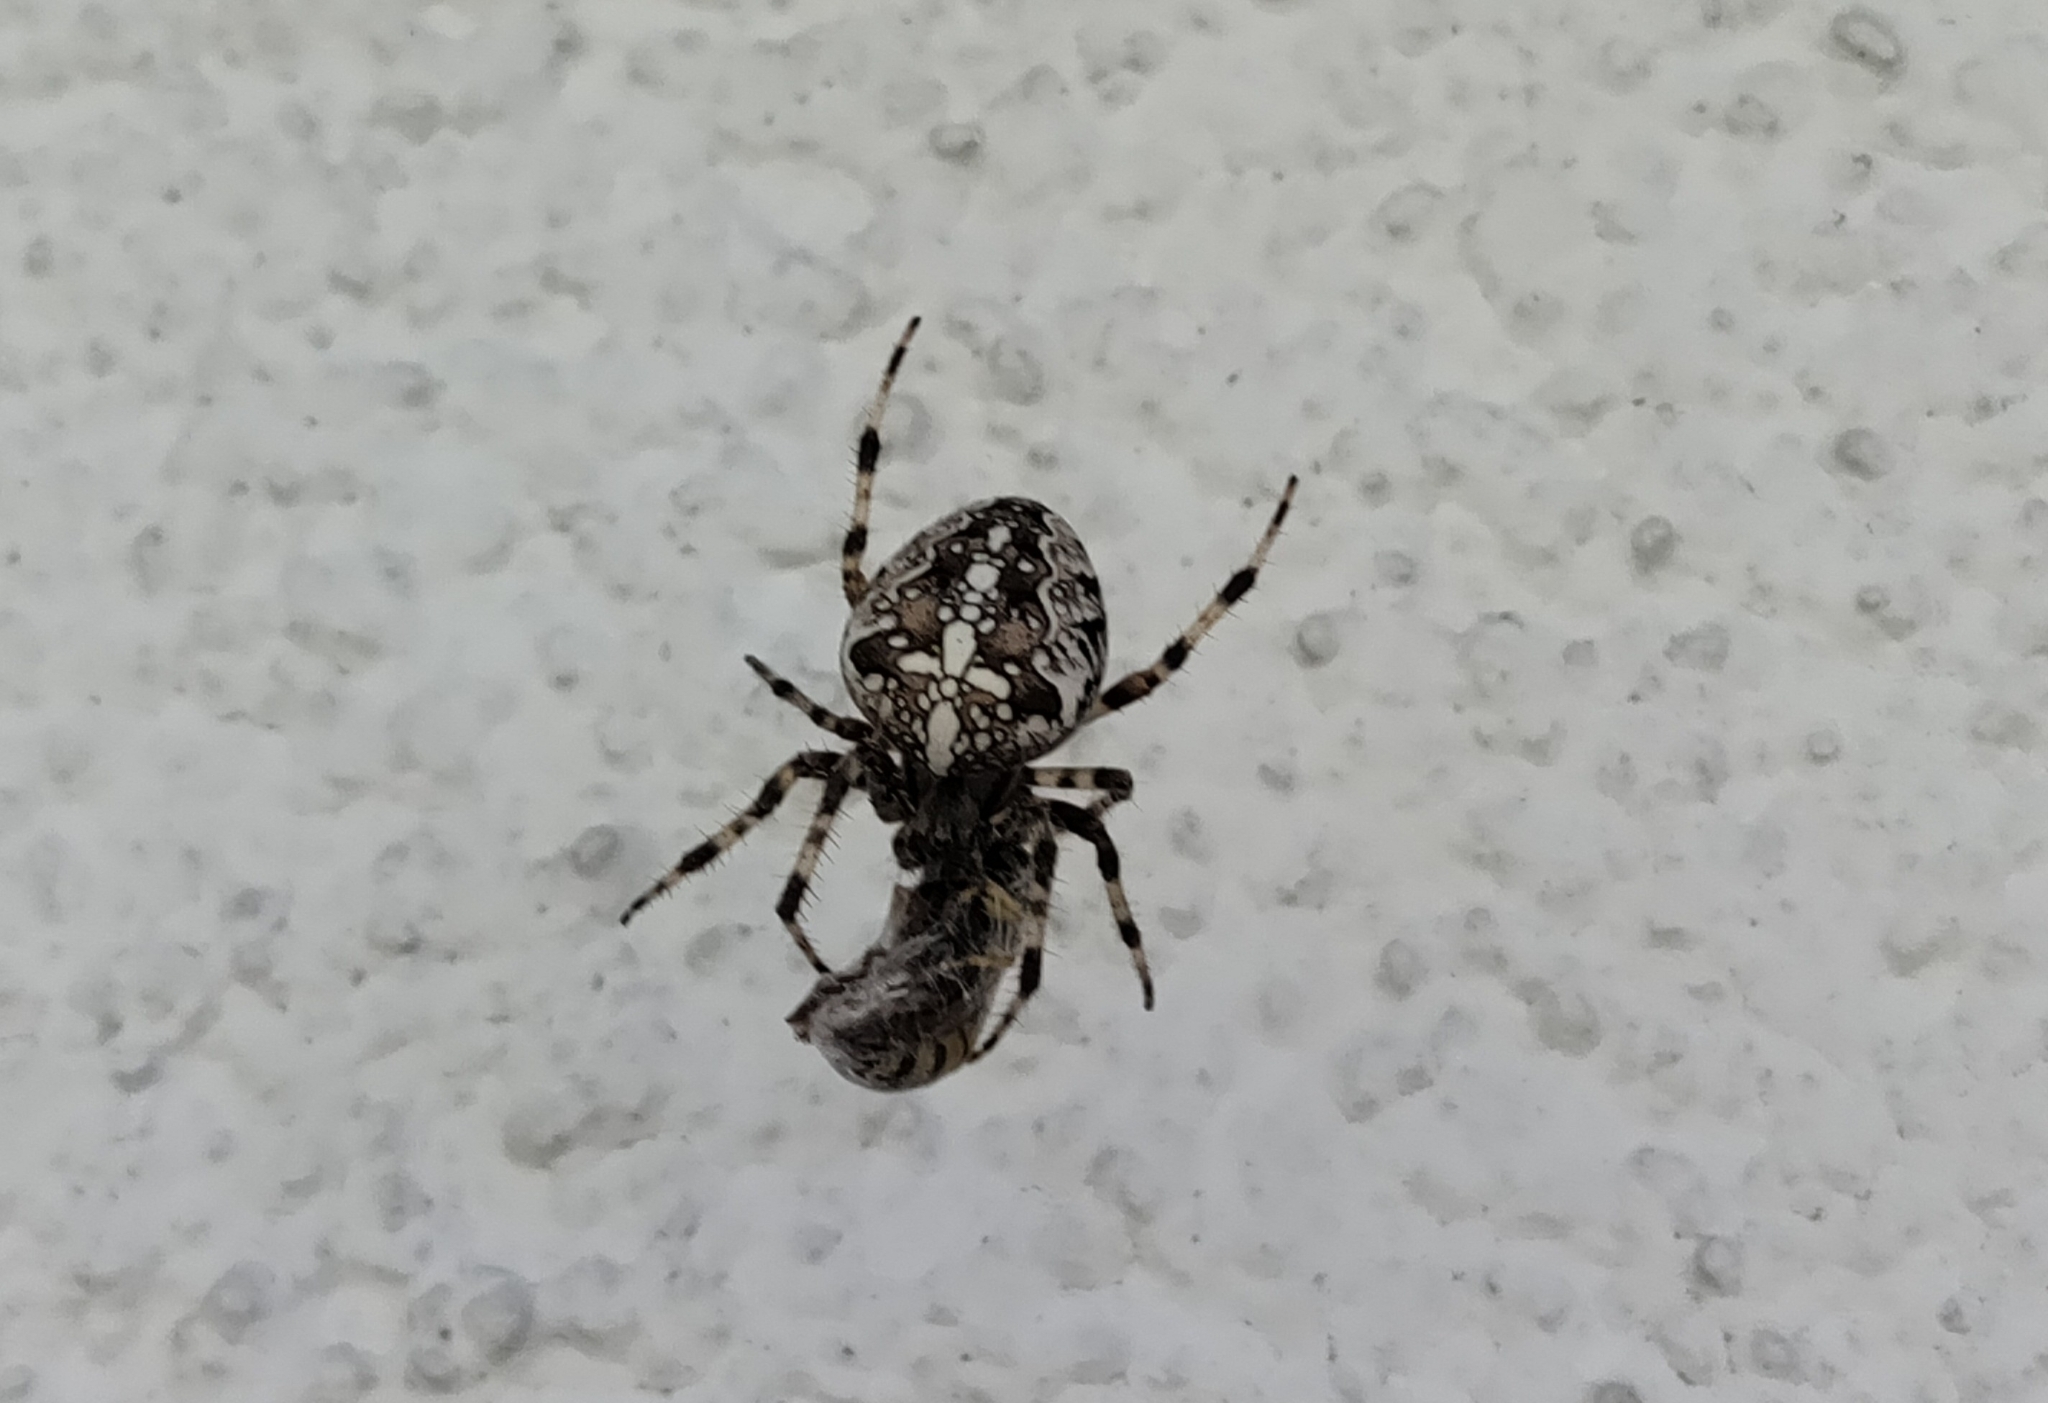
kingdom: Animalia
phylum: Arthropoda
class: Arachnida
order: Araneae
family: Araneidae
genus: Araneus
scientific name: Araneus diadematus
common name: Cross orbweaver
